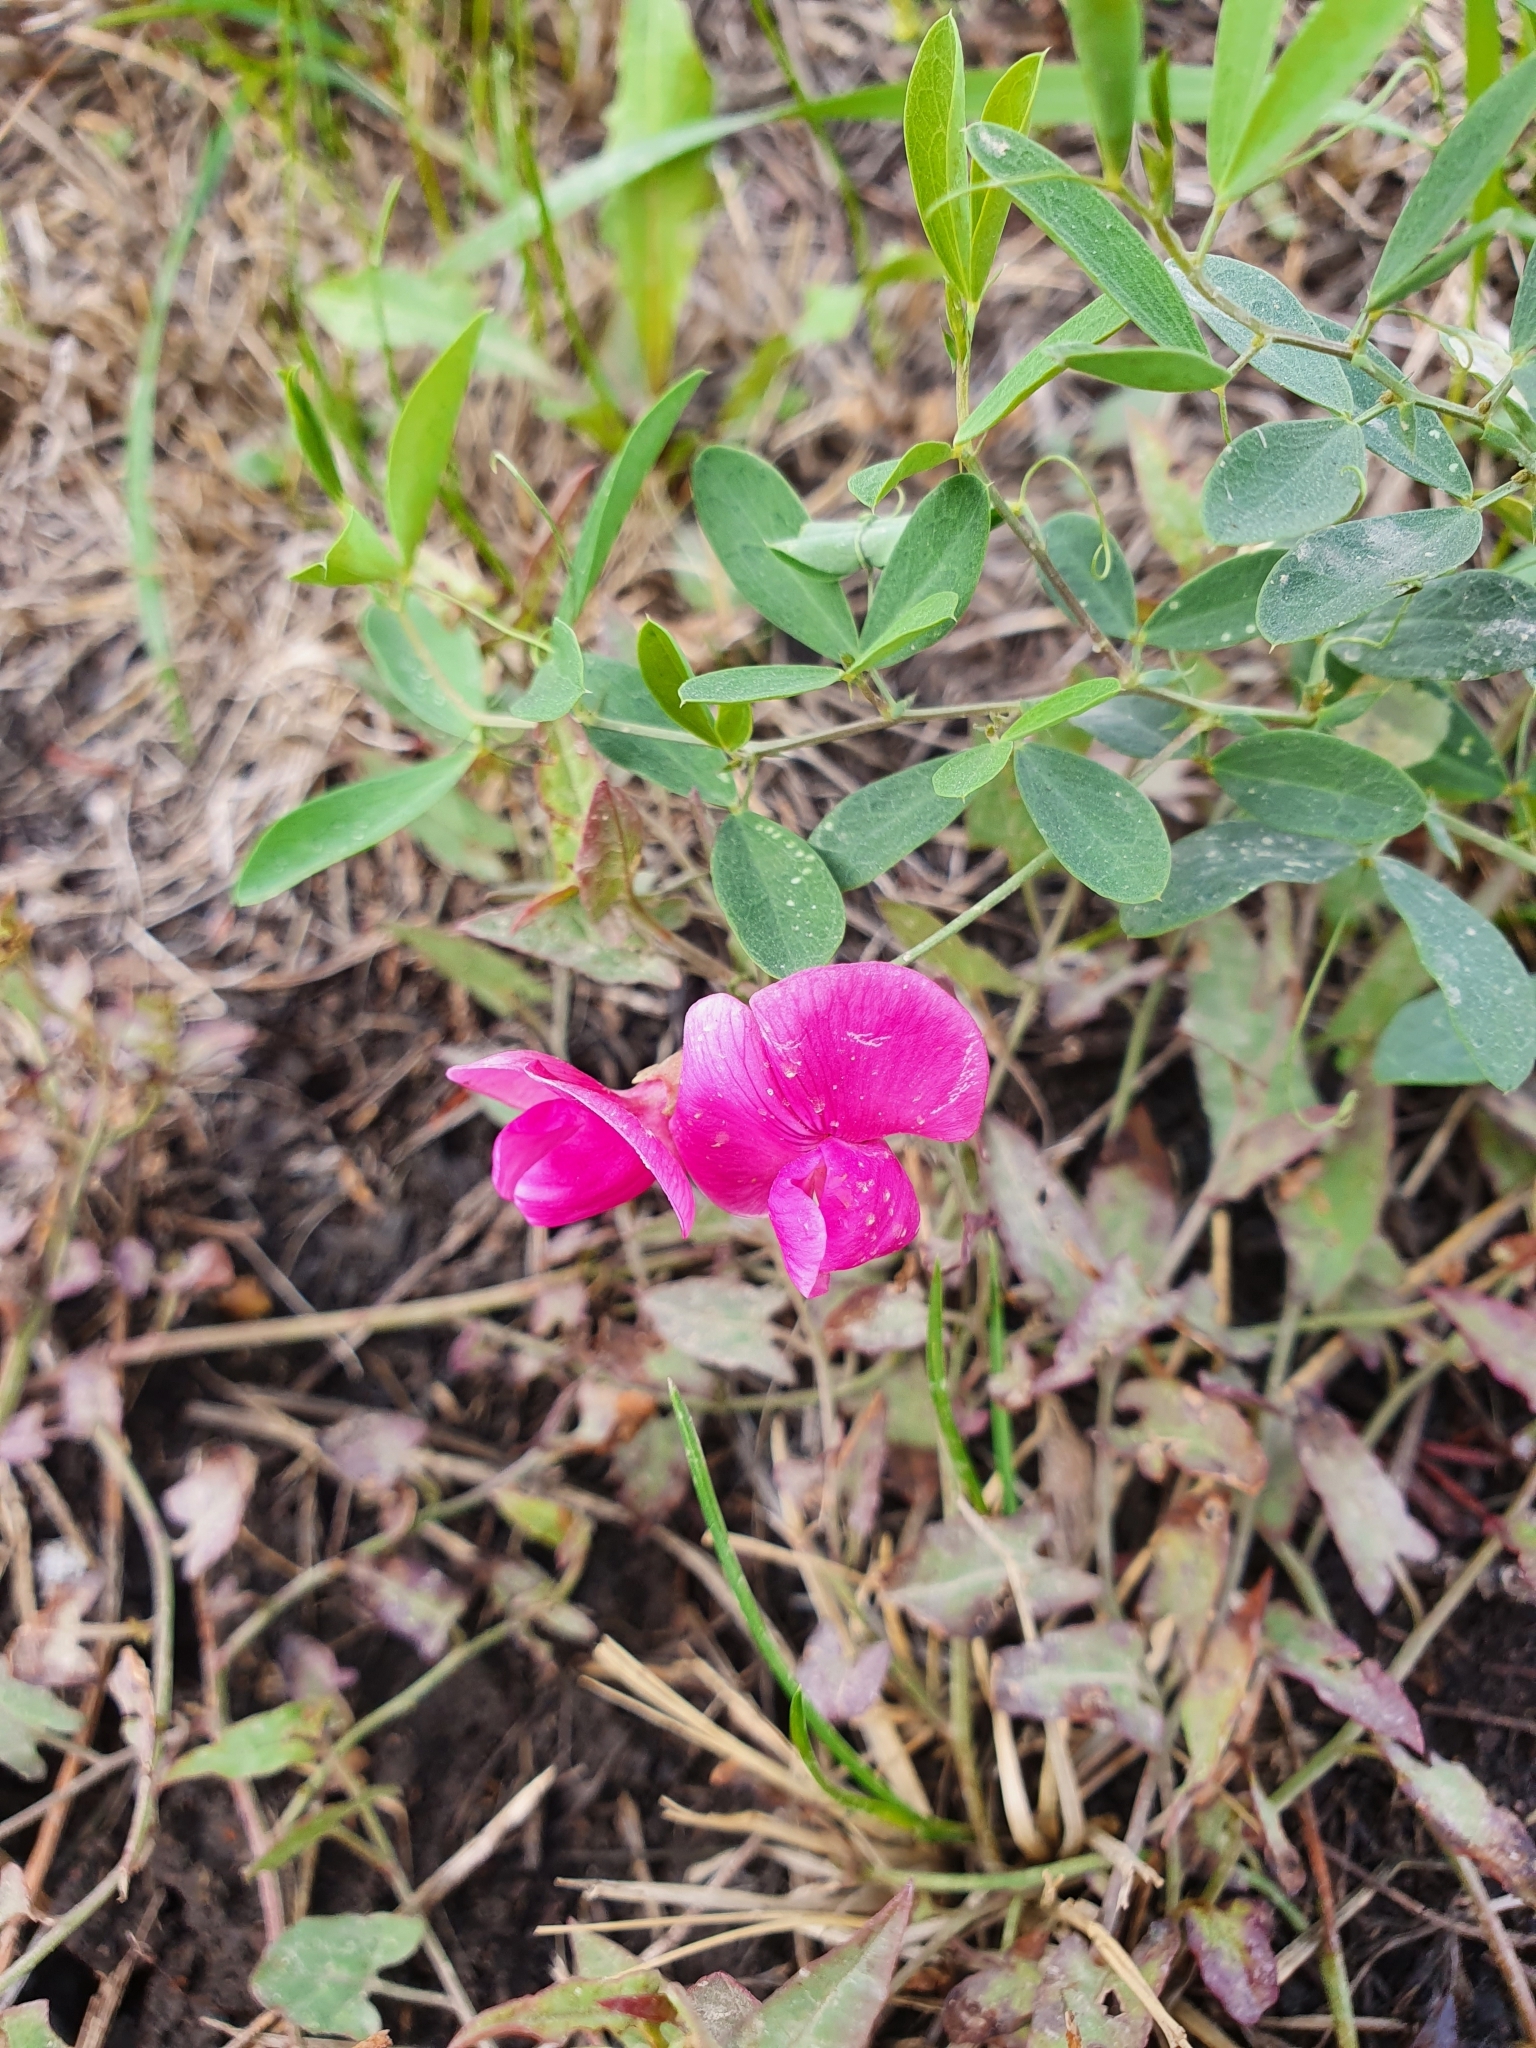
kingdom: Plantae
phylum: Tracheophyta
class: Magnoliopsida
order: Fabales
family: Fabaceae
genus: Lathyrus
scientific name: Lathyrus tuberosus
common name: Tuberous pea
